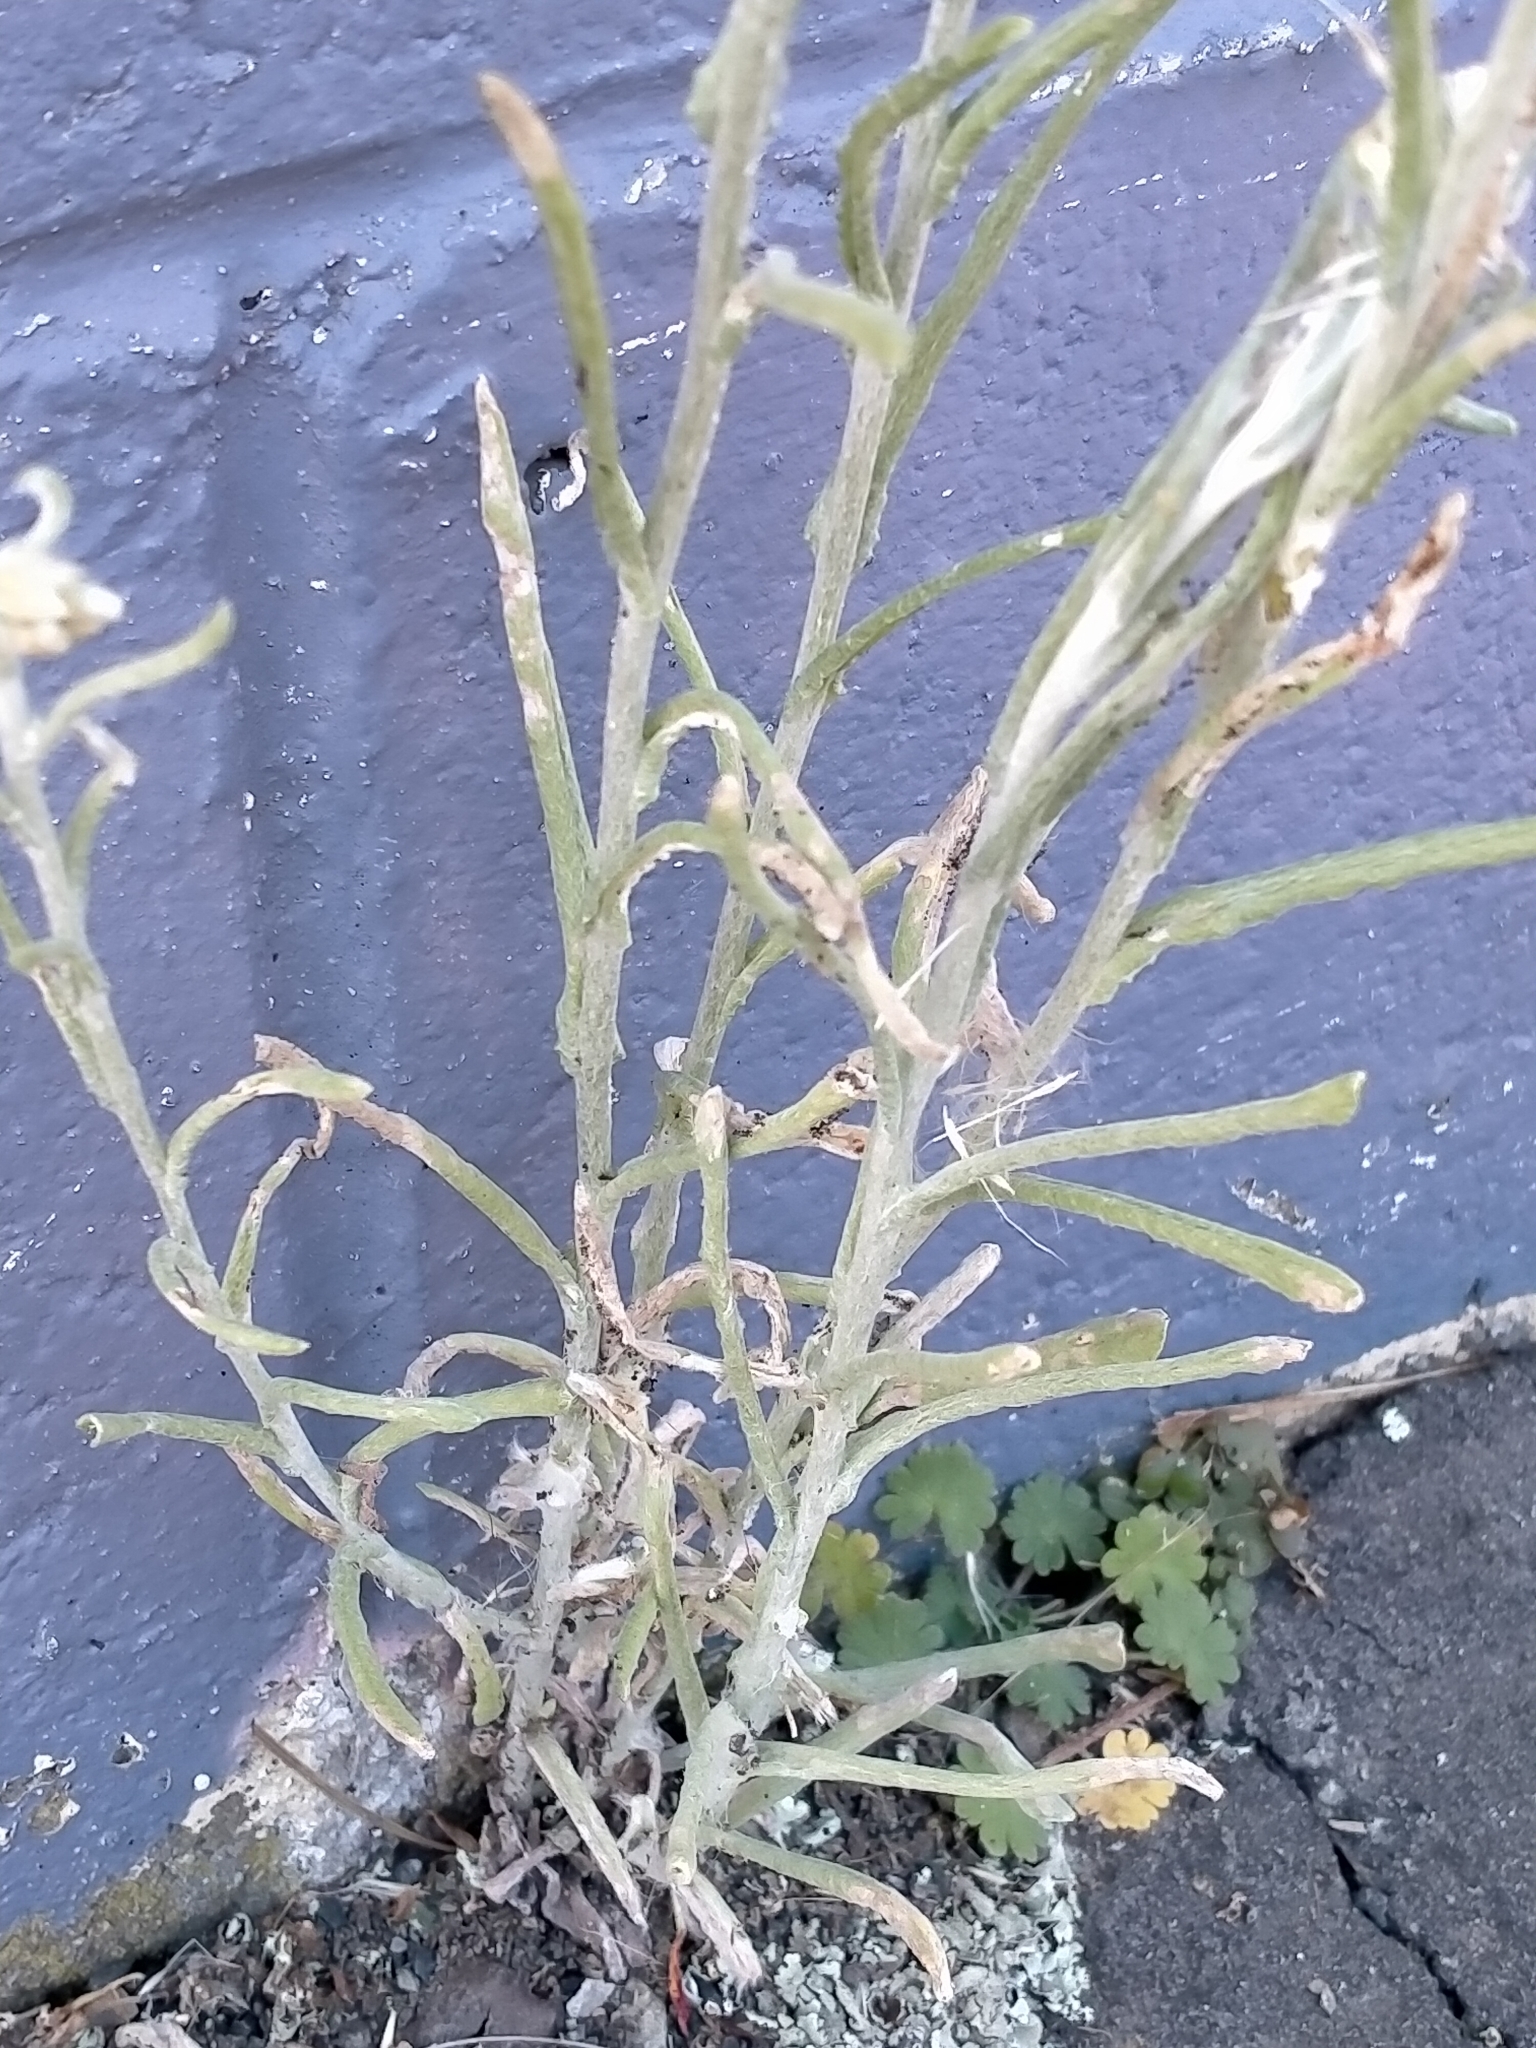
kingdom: Plantae
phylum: Tracheophyta
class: Magnoliopsida
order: Asterales
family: Asteraceae
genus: Helichrysum
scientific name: Helichrysum luteoalbum
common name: Daisy
